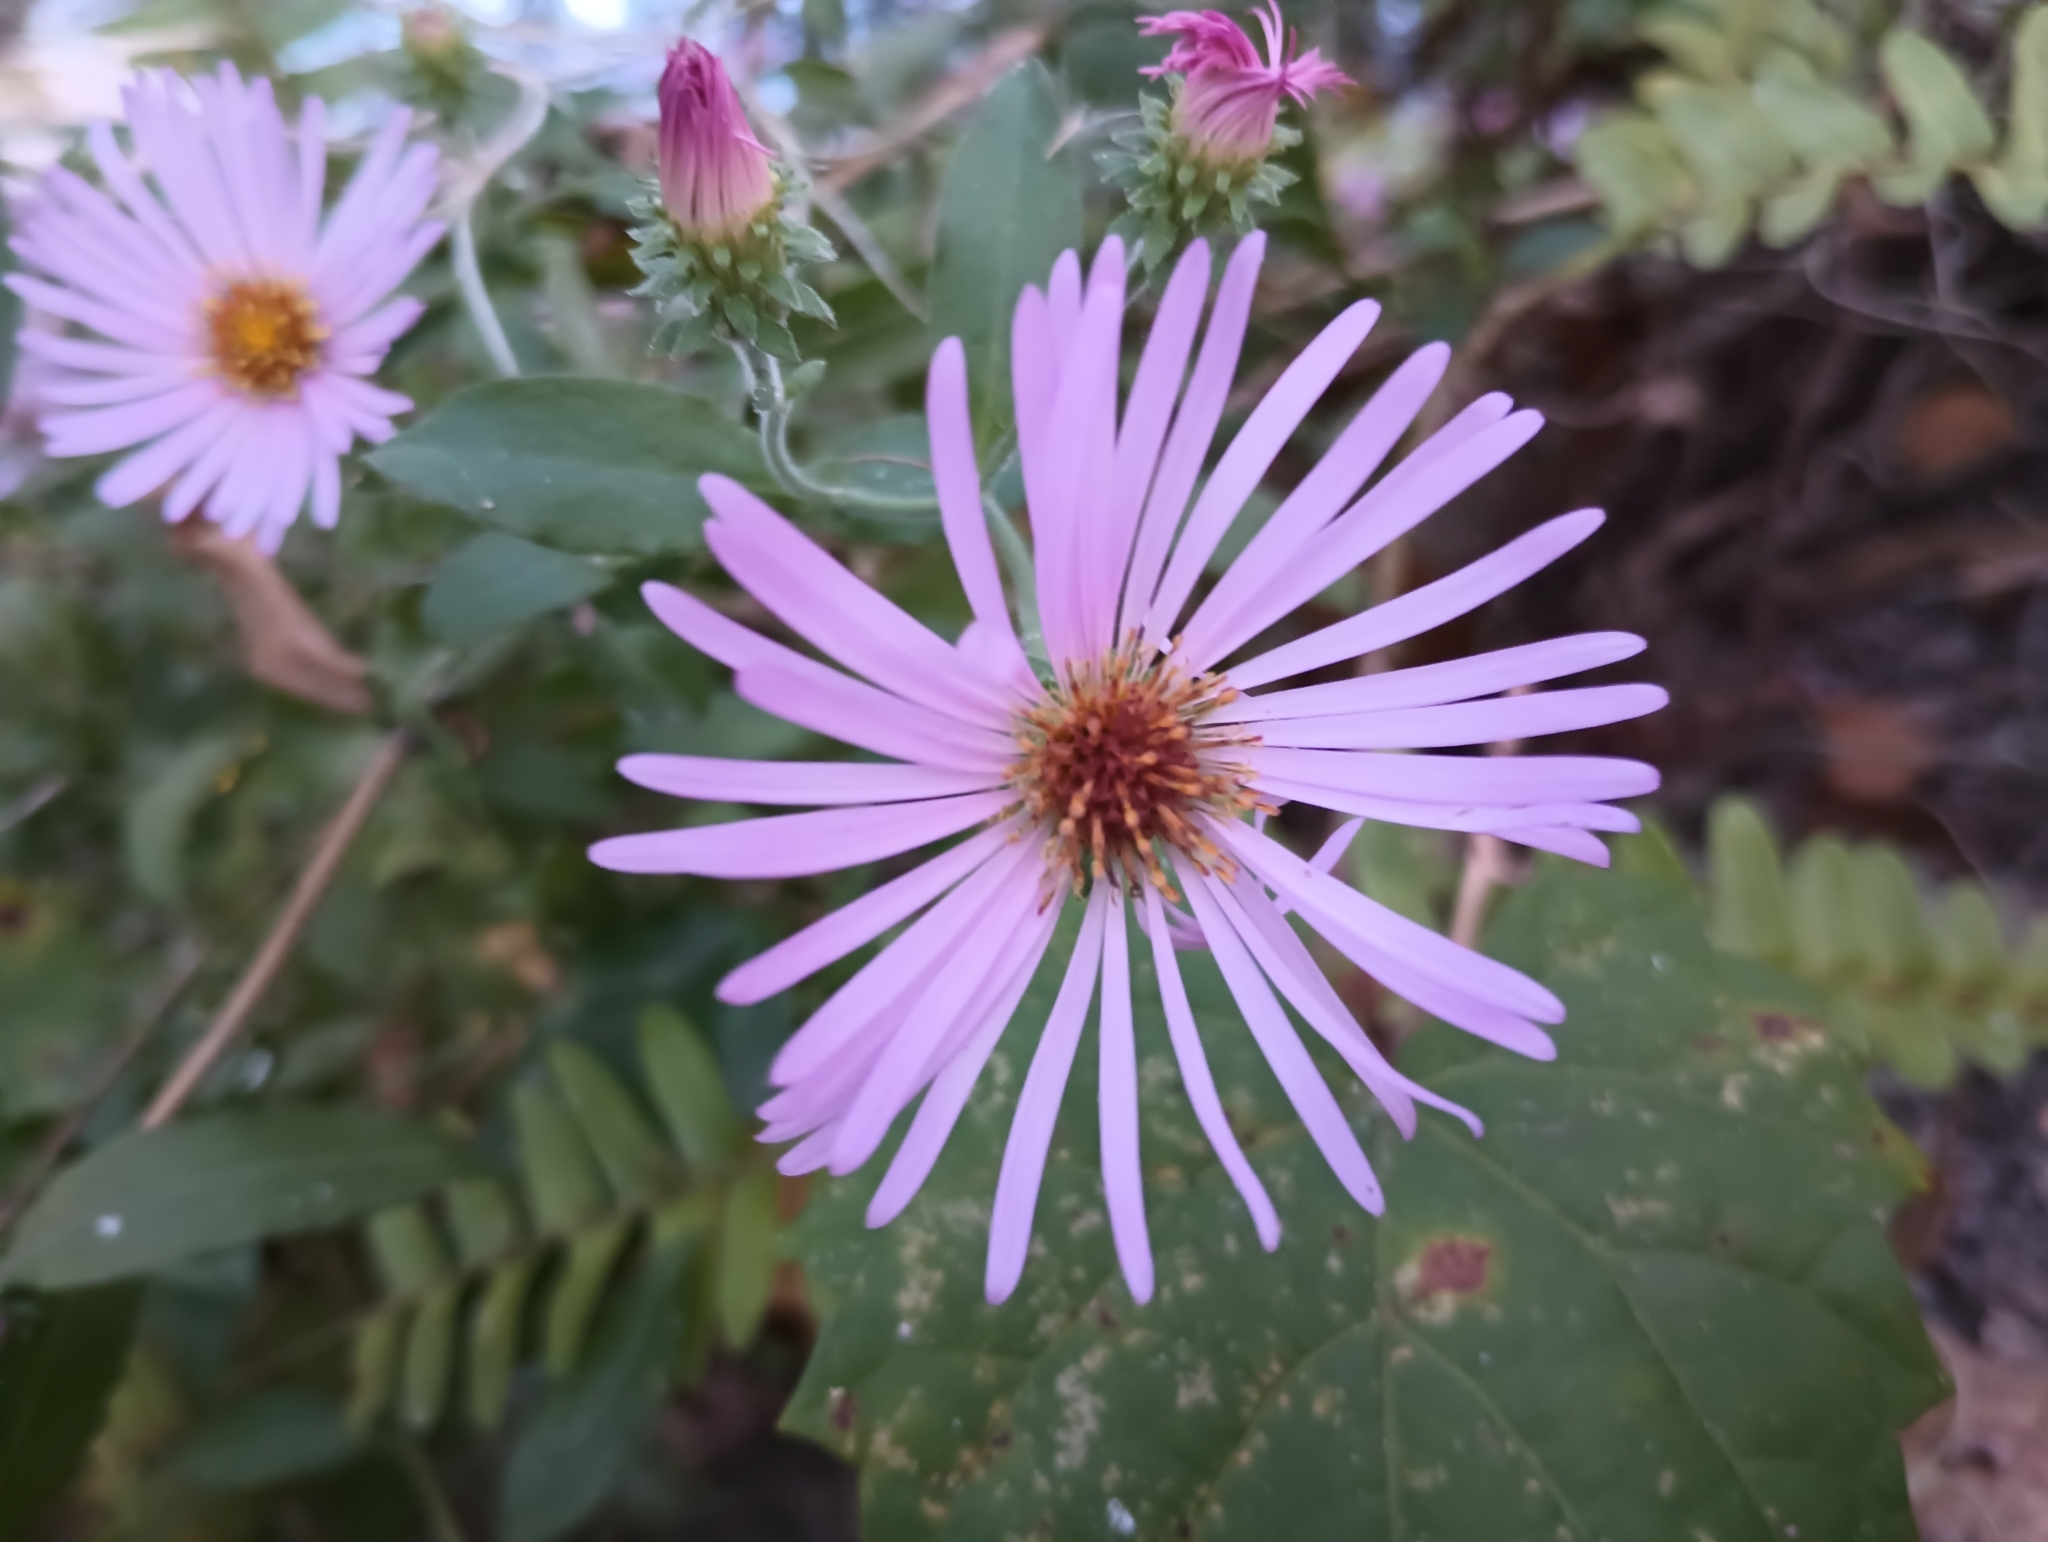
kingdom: Plantae
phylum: Tracheophyta
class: Magnoliopsida
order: Asterales
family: Asteraceae
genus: Ampelaster
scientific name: Ampelaster carolinianus
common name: Climbing aster
